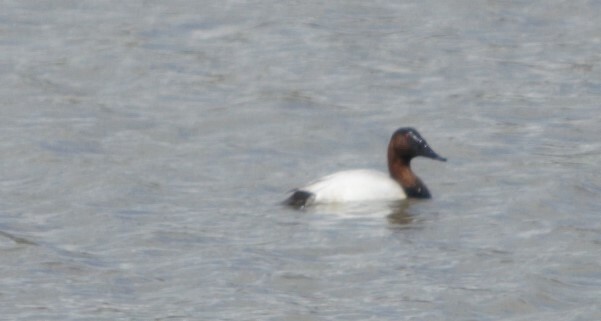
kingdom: Animalia
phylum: Chordata
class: Aves
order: Anseriformes
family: Anatidae
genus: Aythya
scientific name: Aythya valisineria
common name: Canvasback
